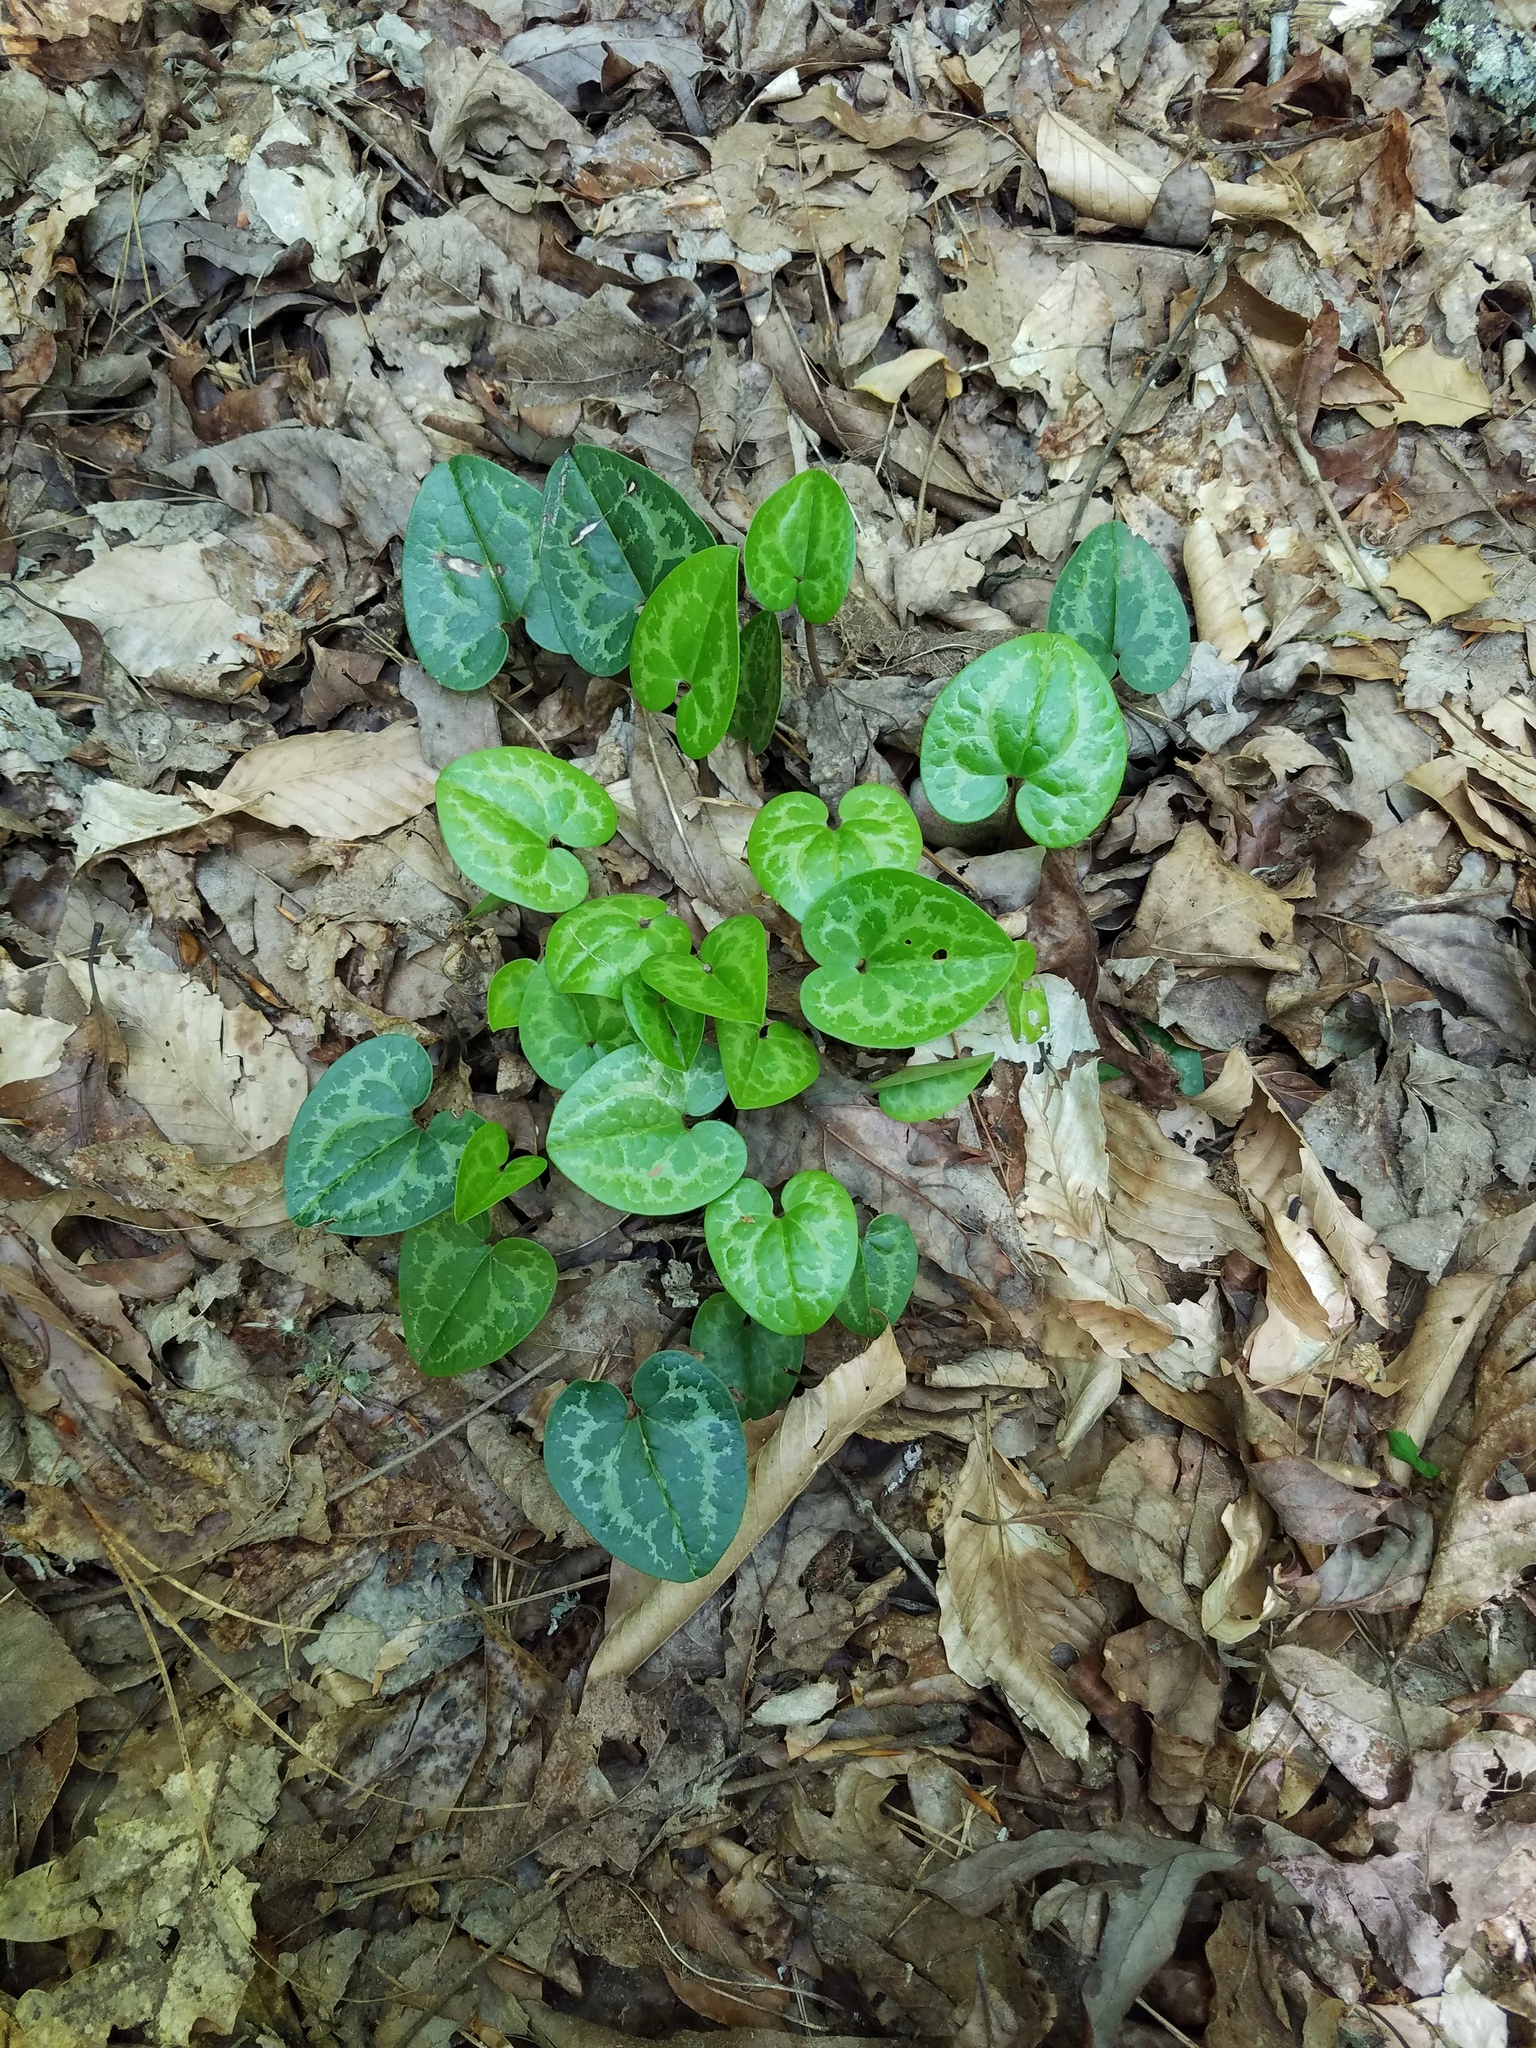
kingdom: Plantae
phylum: Tracheophyta
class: Magnoliopsida
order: Piperales
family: Aristolochiaceae
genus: Hexastylis
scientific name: Hexastylis shuttleworthii
